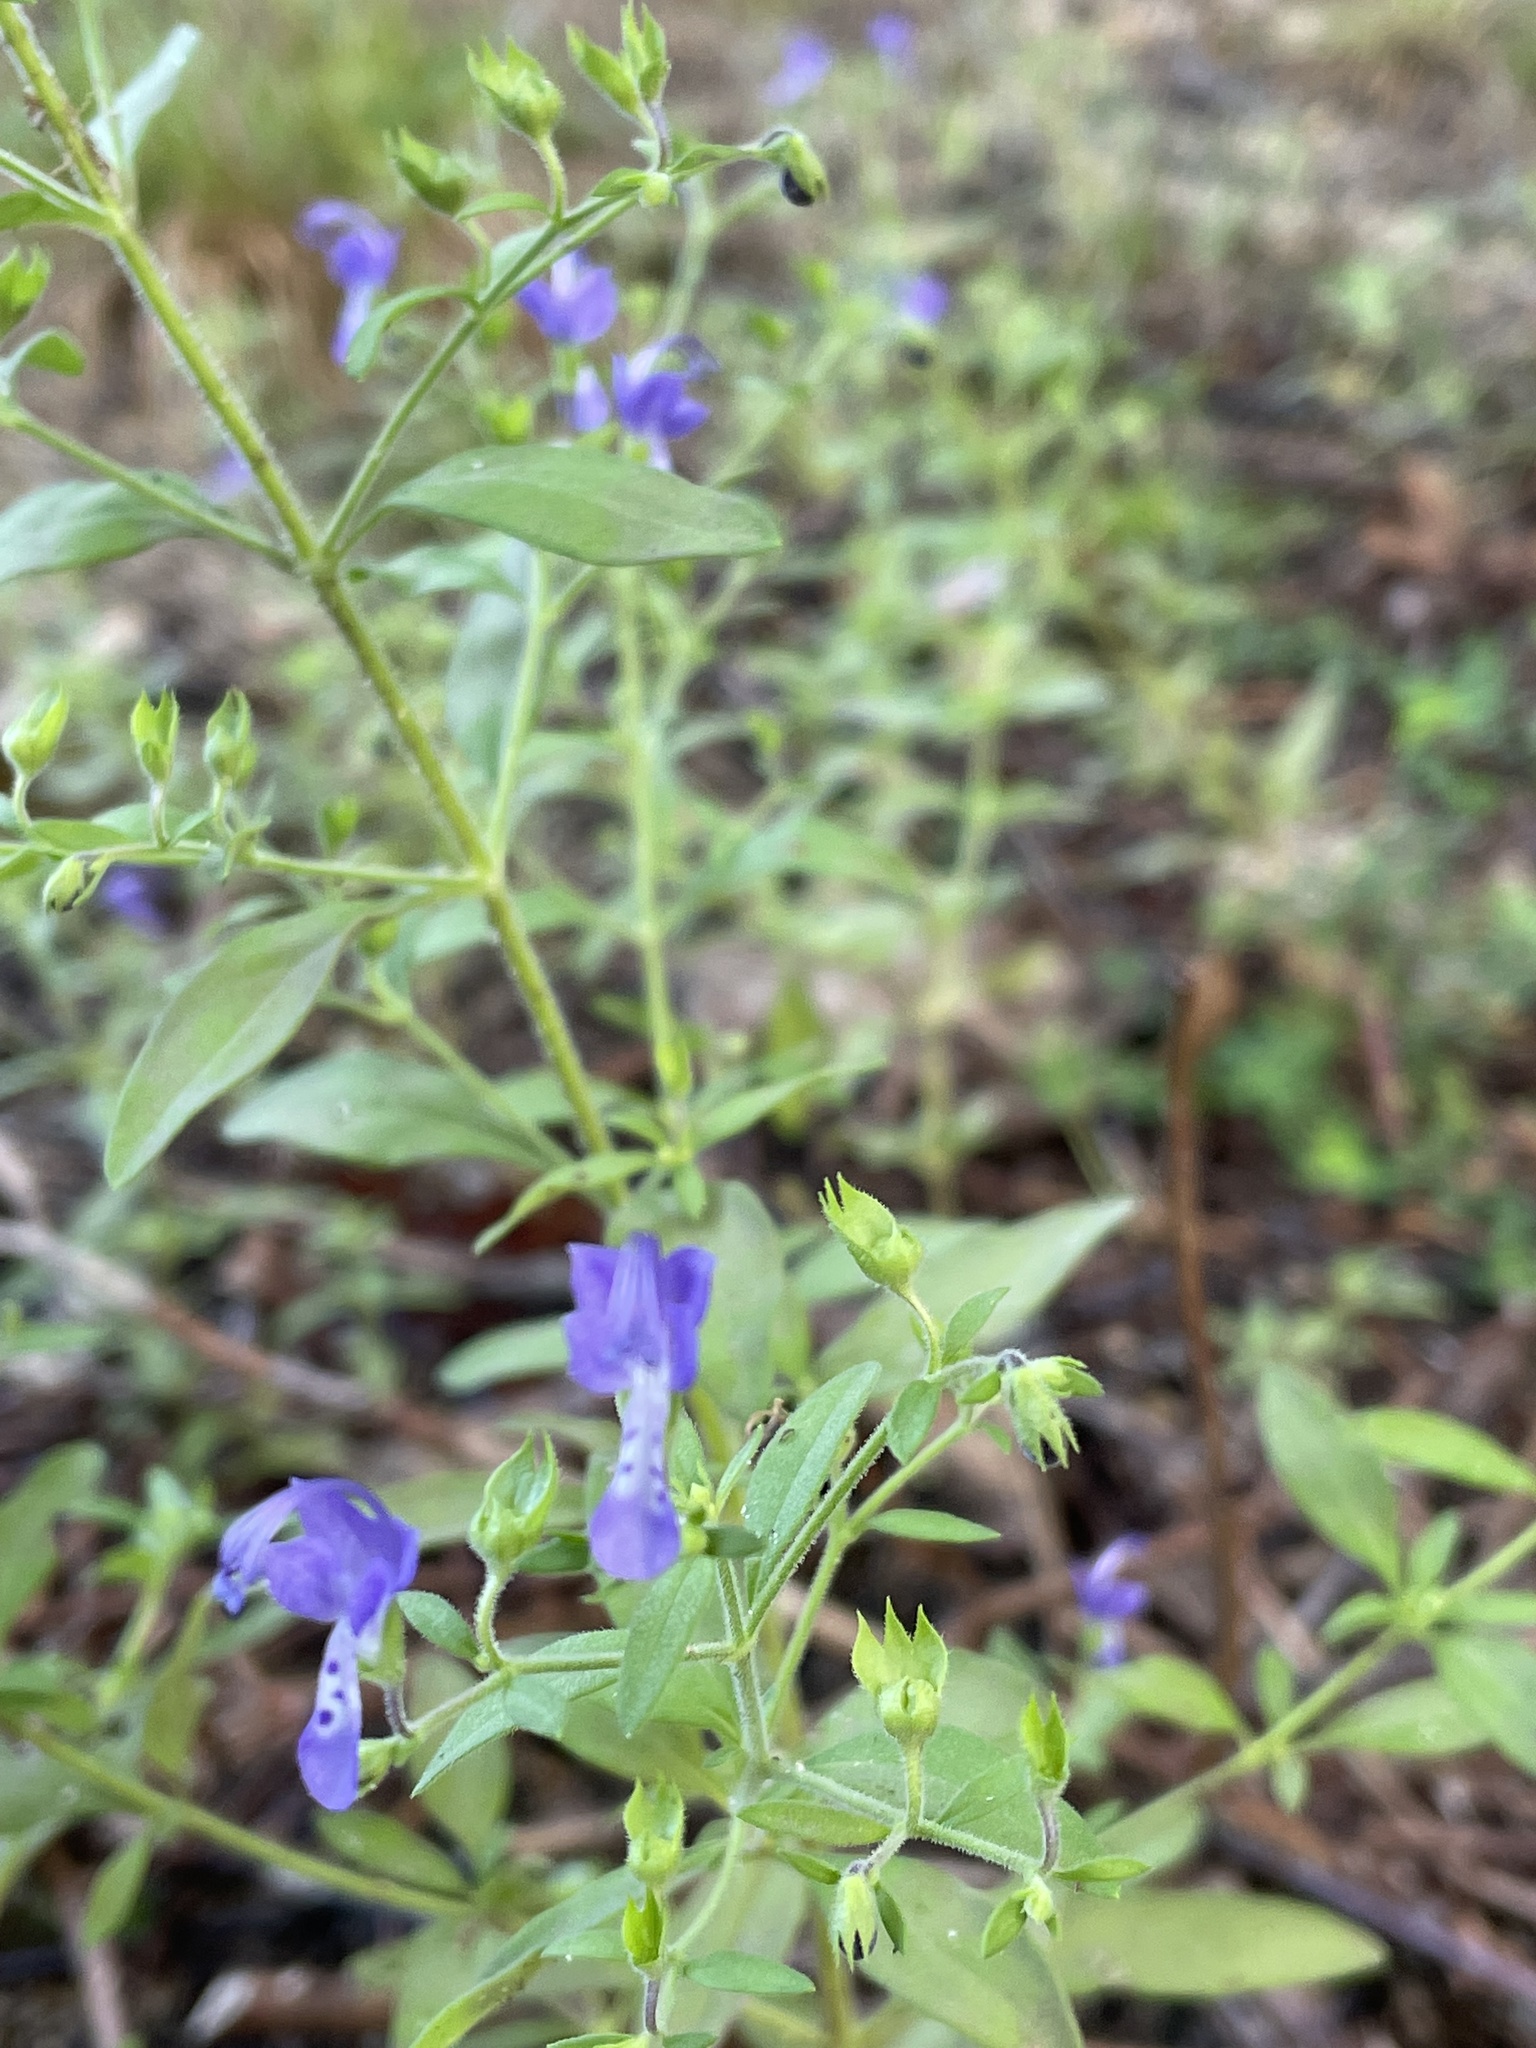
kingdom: Plantae
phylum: Tracheophyta
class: Magnoliopsida
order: Lamiales
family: Lamiaceae
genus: Trichostema
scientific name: Trichostema dichotomum
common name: Bastard pennyroyal
